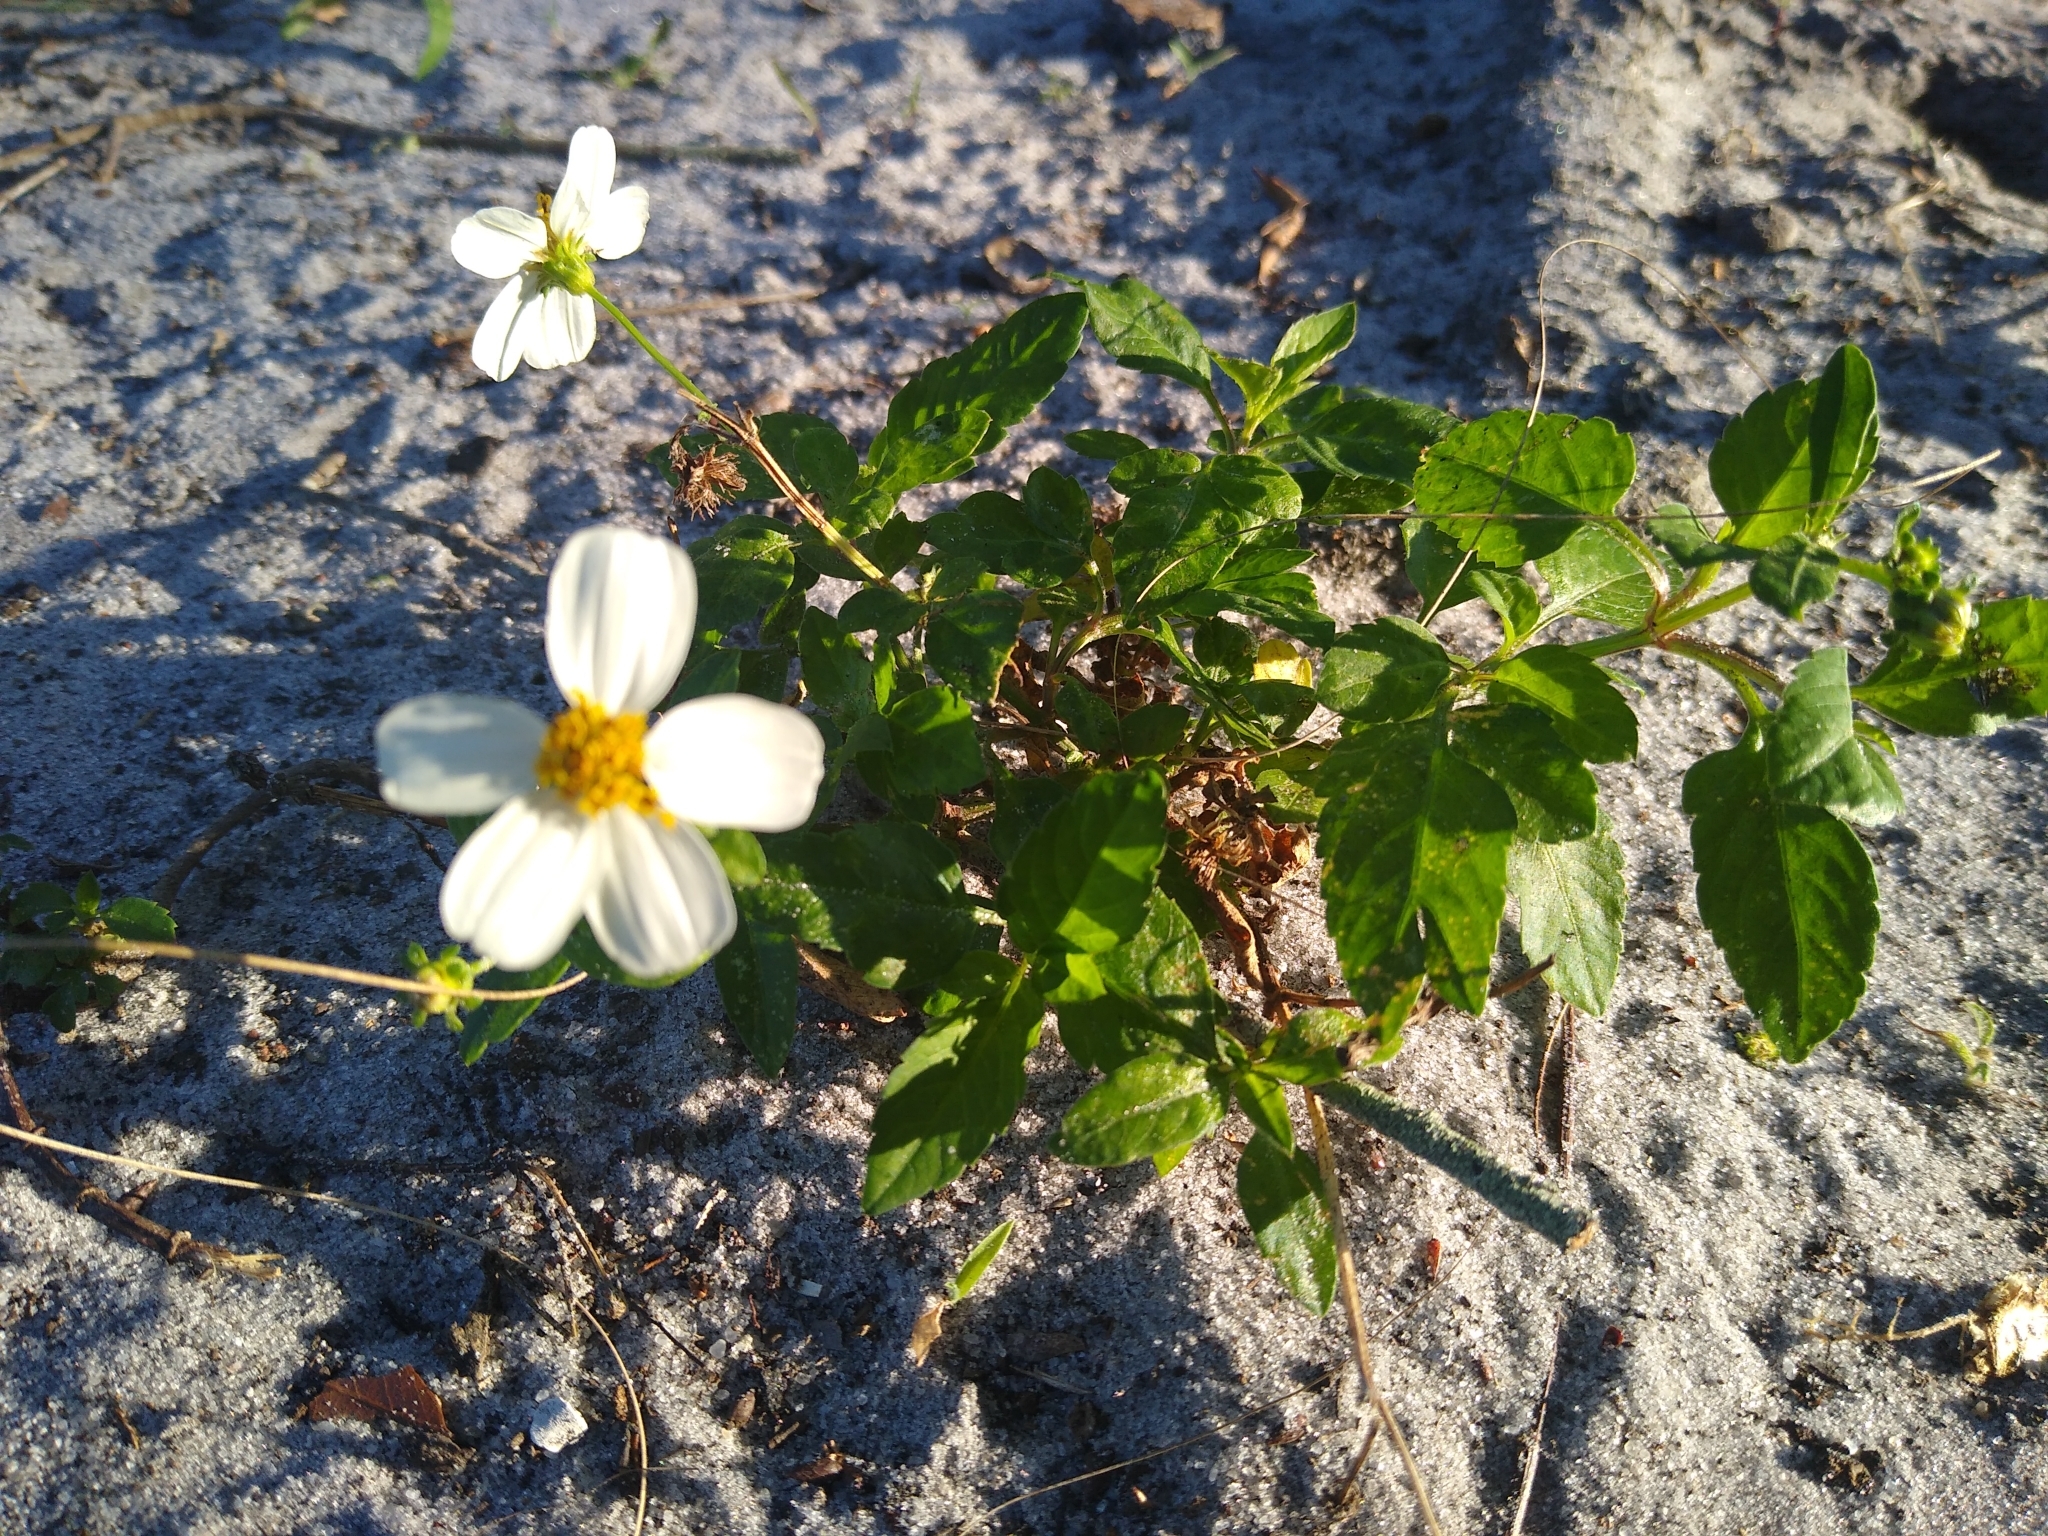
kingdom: Plantae
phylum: Tracheophyta
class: Magnoliopsida
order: Asterales
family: Asteraceae
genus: Bidens
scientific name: Bidens alba
